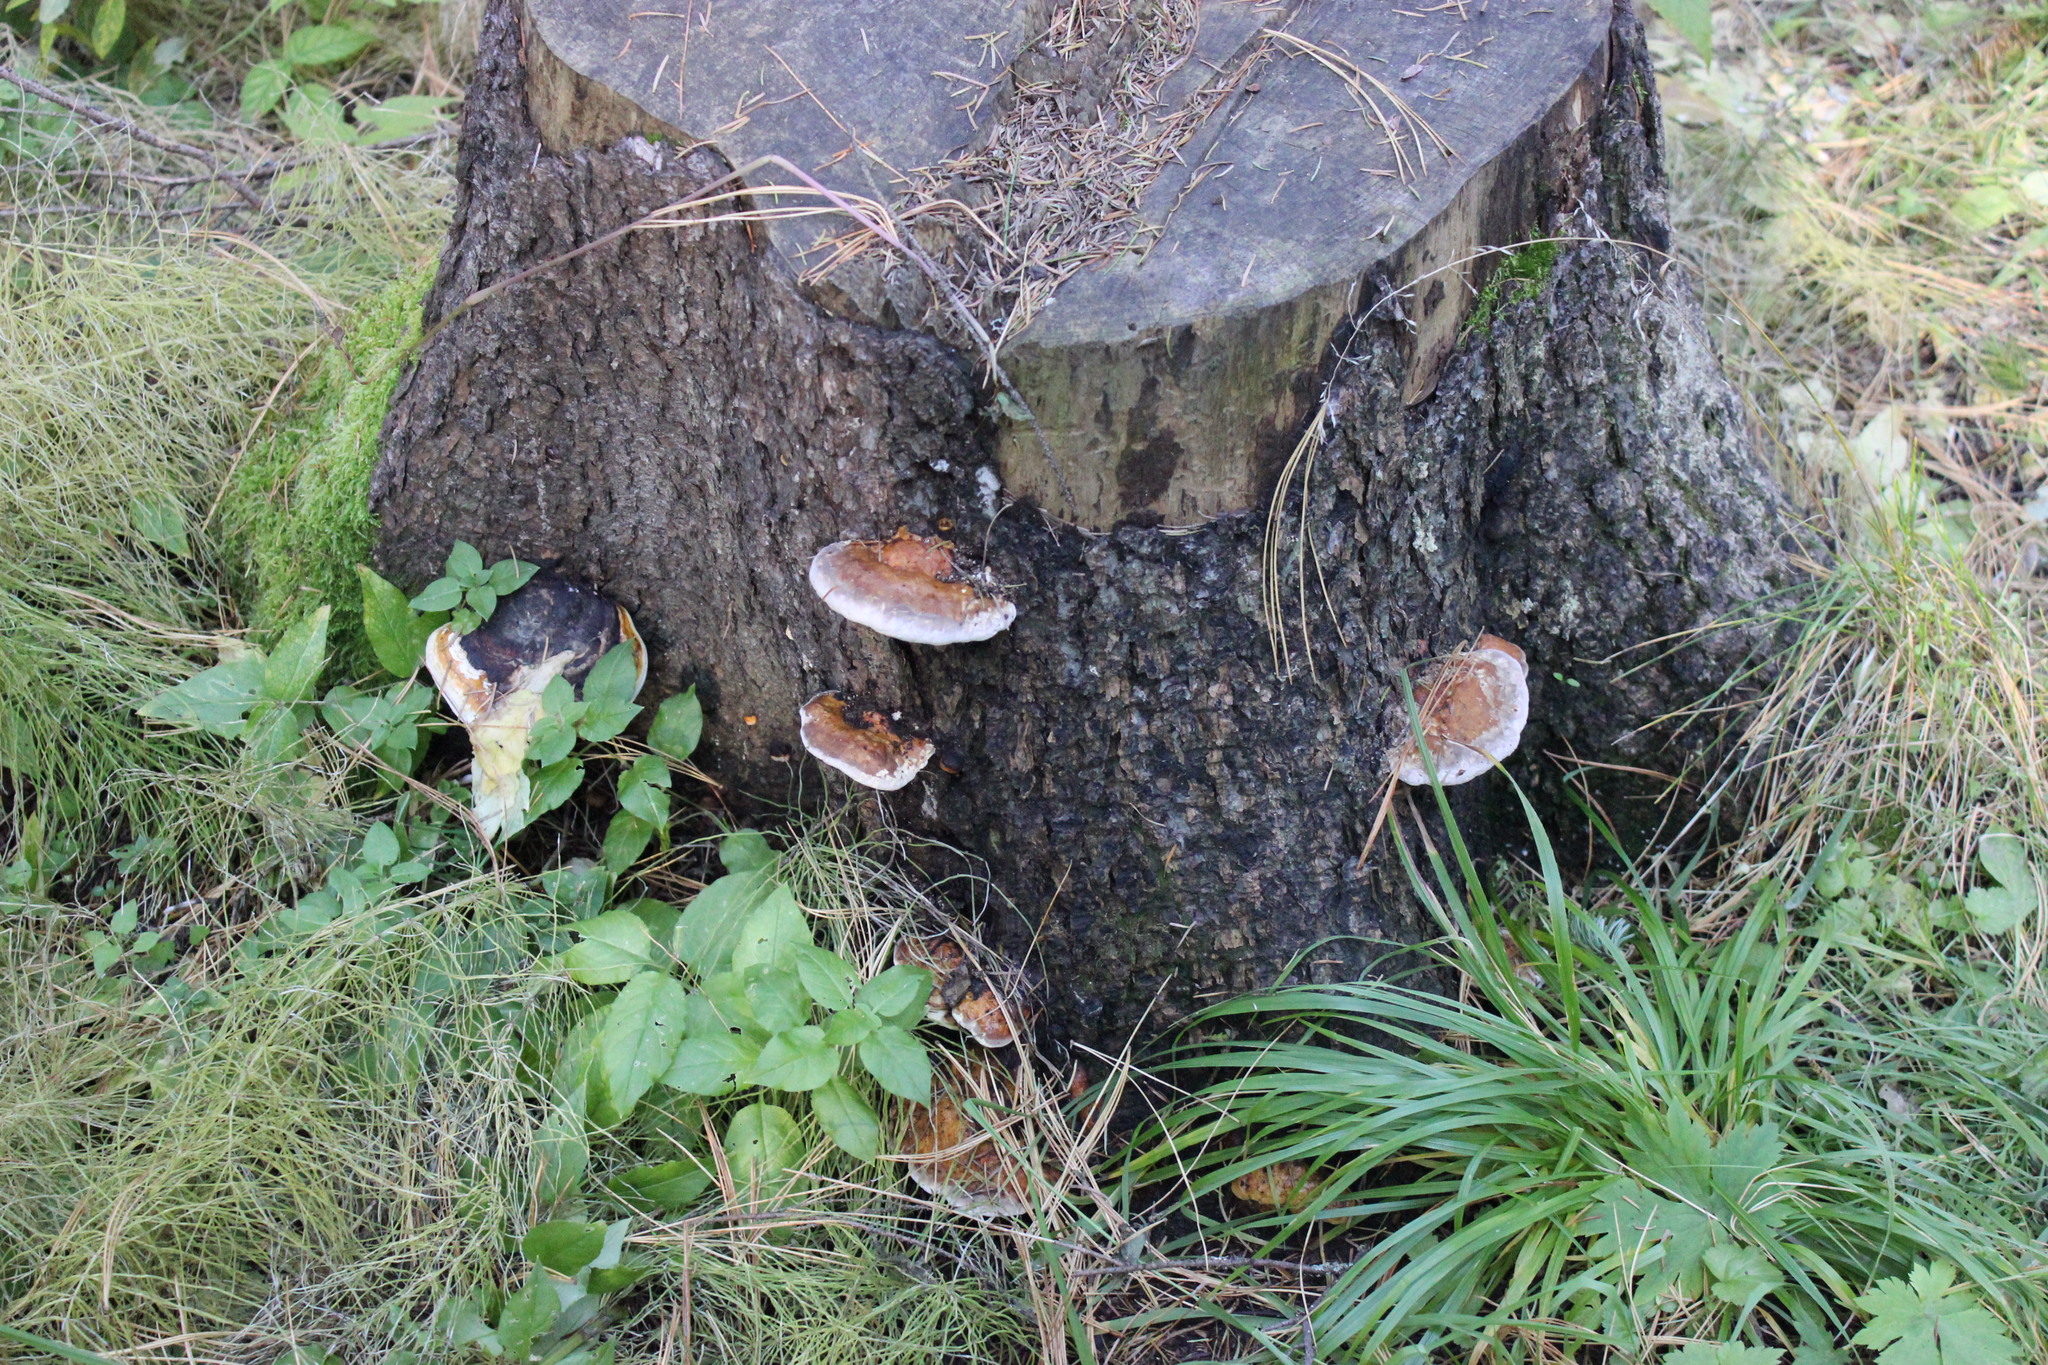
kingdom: Fungi
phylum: Basidiomycota
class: Agaricomycetes
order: Polyporales
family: Fomitopsidaceae
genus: Fomitopsis
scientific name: Fomitopsis pinicola
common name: Red-belted bracket
